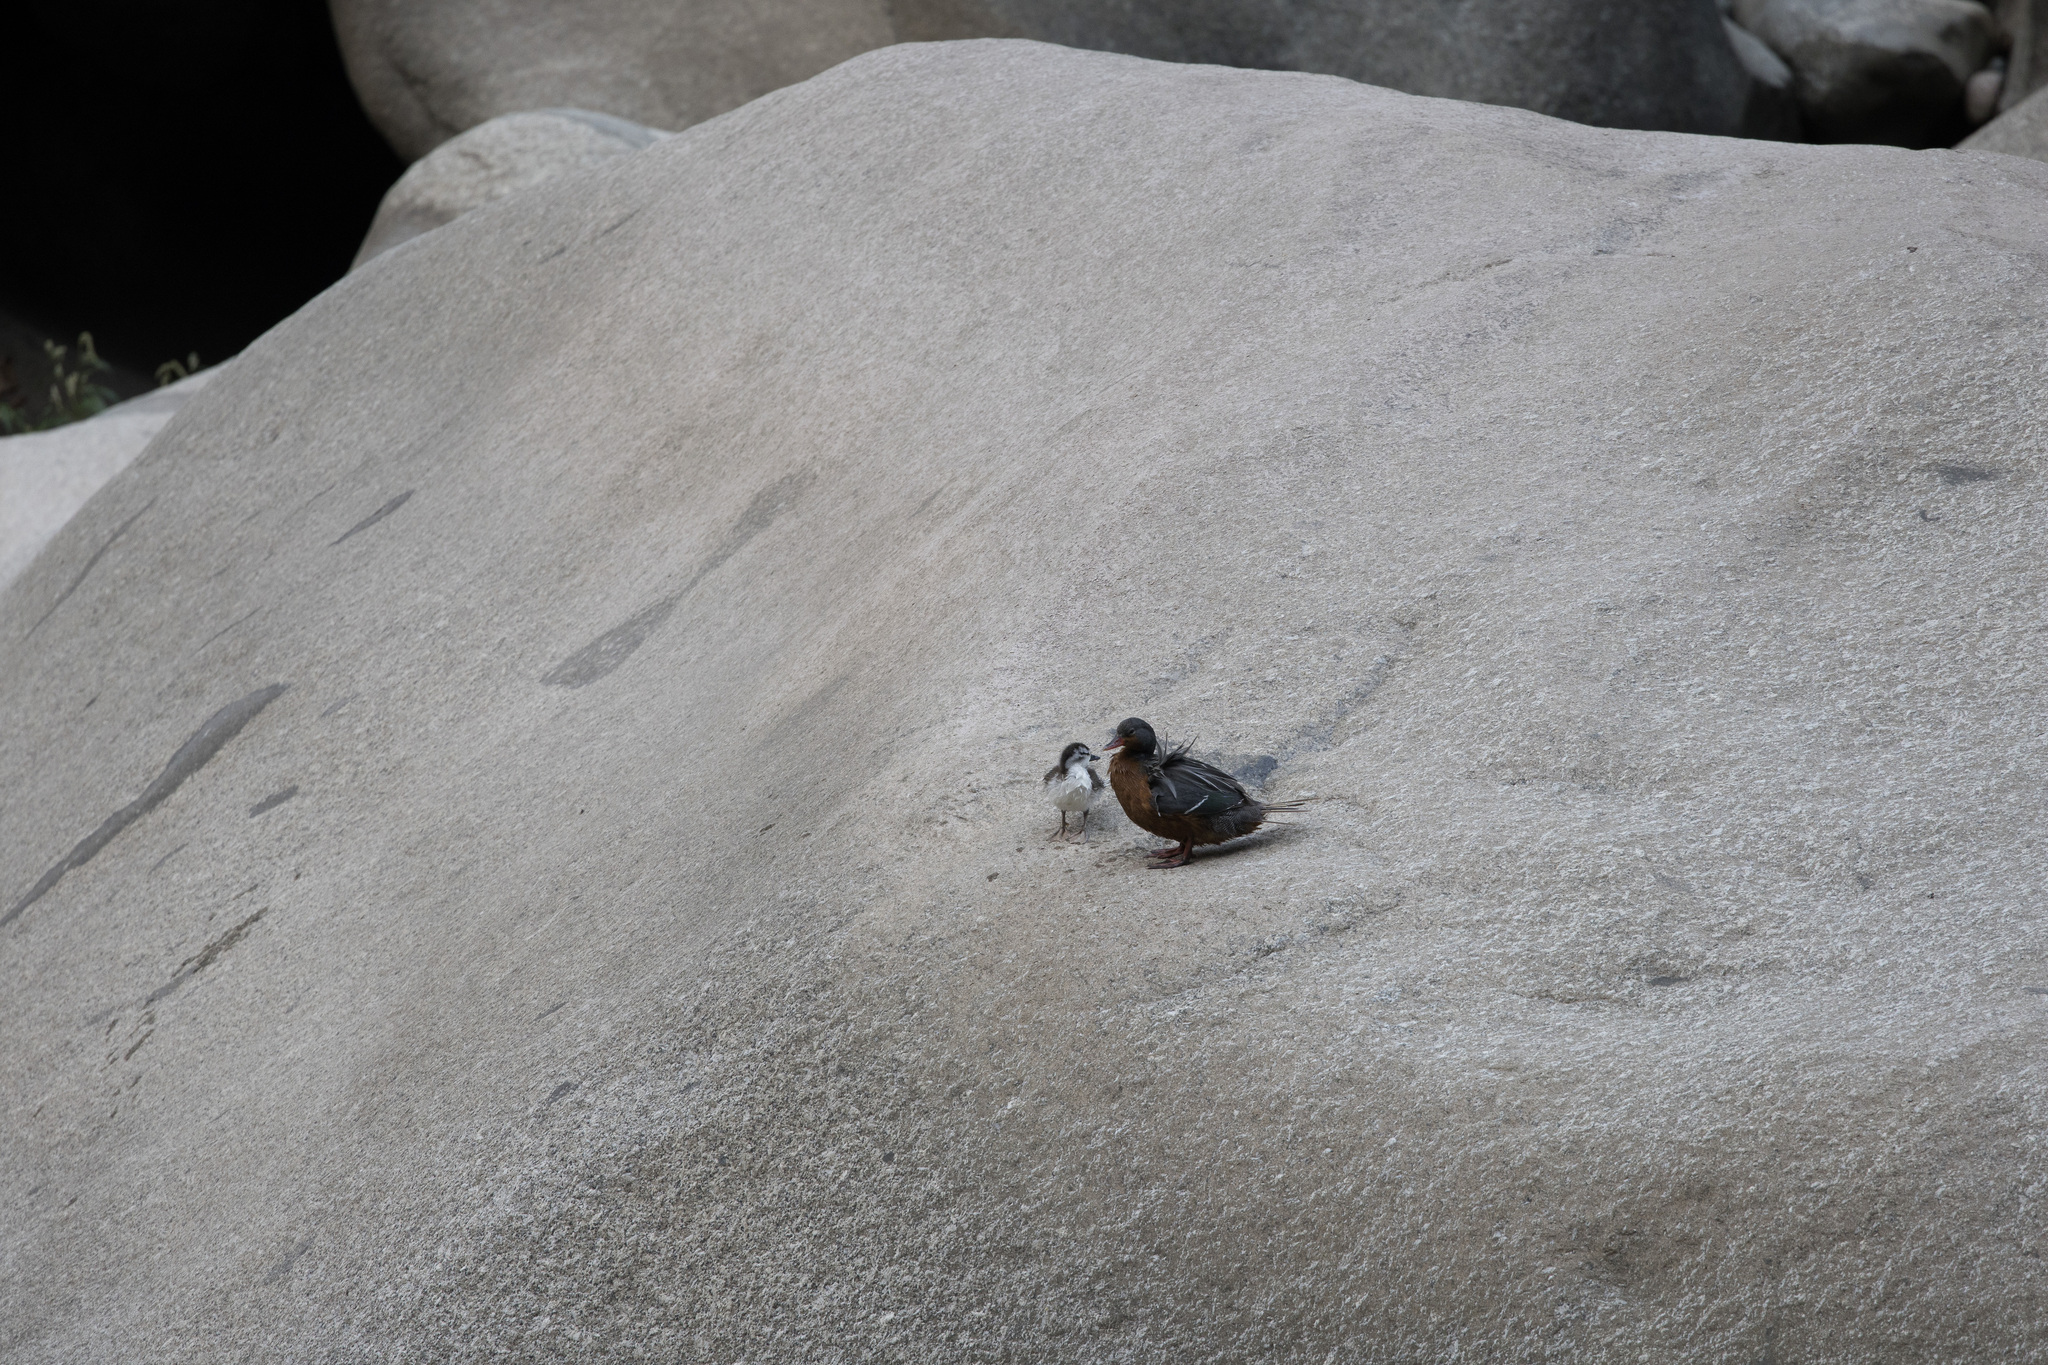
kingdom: Animalia
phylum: Chordata
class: Aves
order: Anseriformes
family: Anatidae
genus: Merganetta
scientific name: Merganetta armata
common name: Torrent duck
